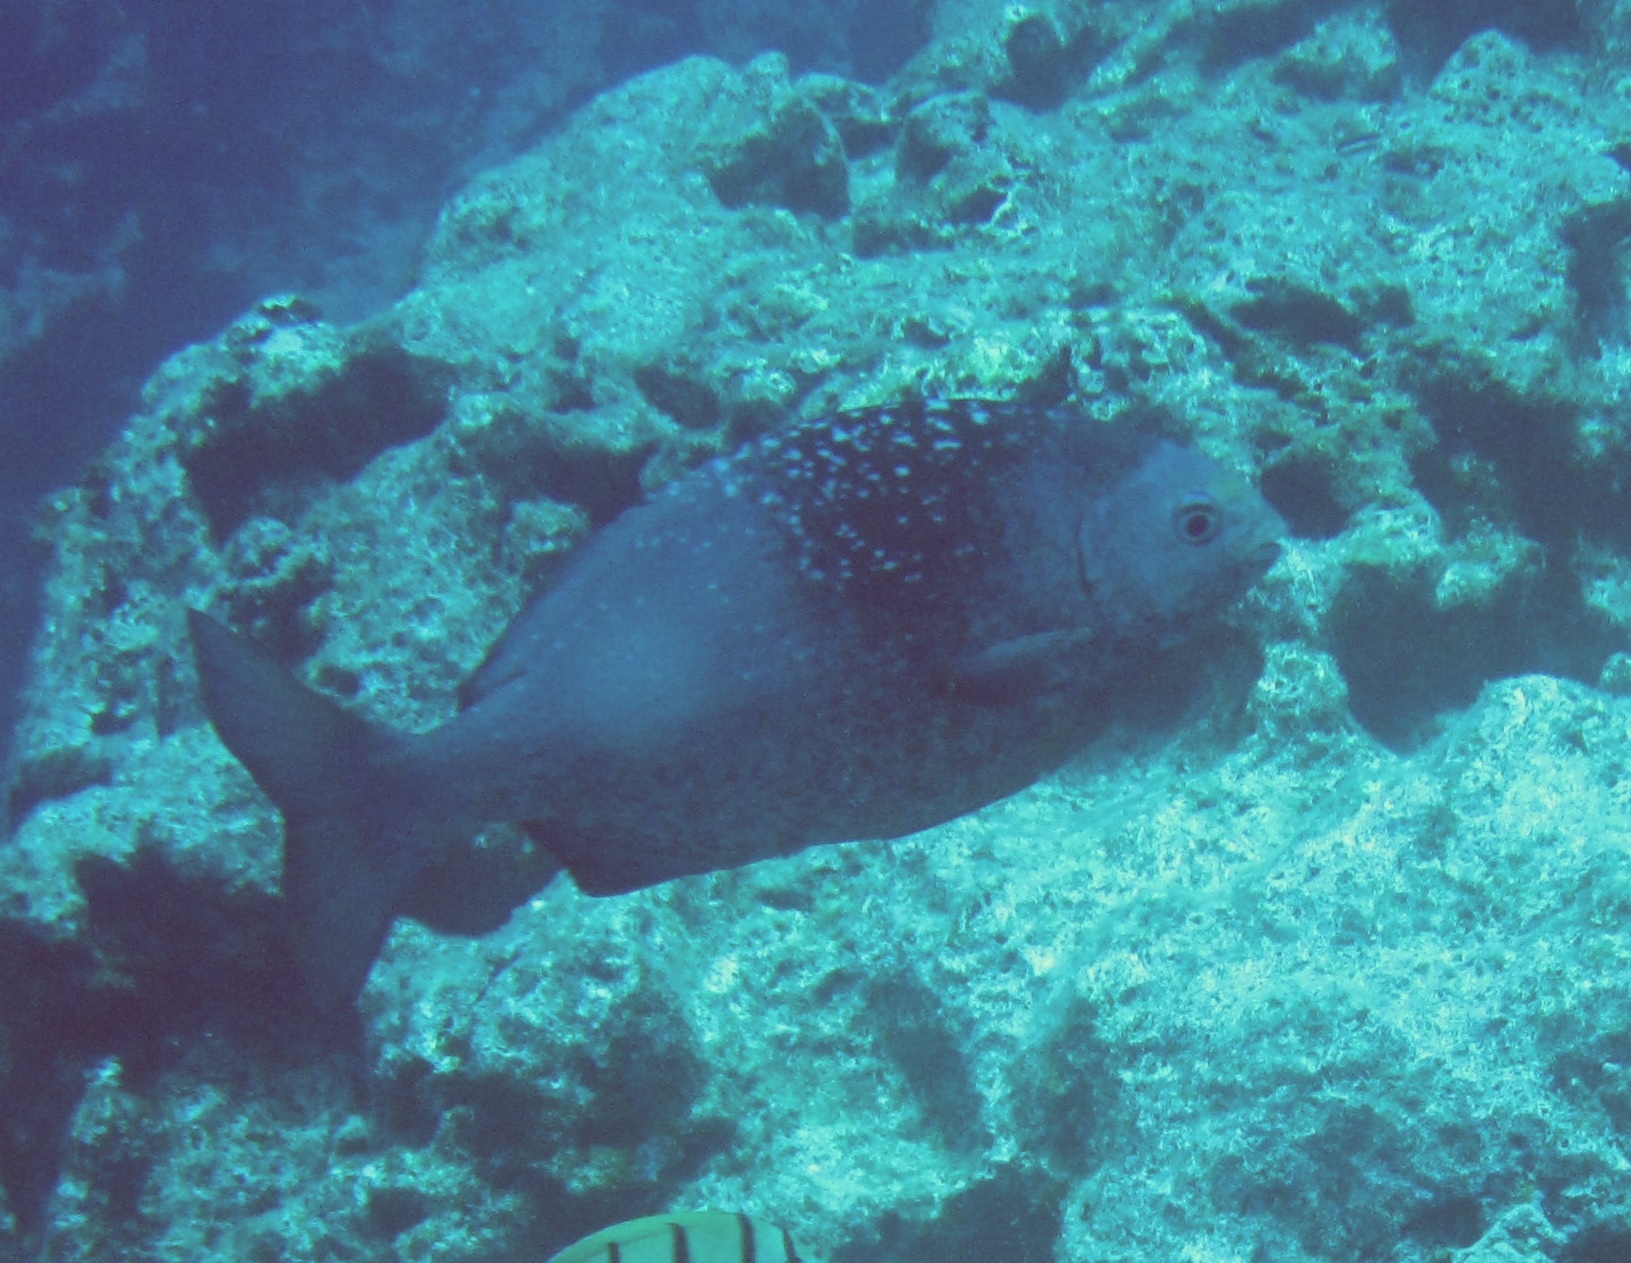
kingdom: Animalia
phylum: Chordata
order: Perciformes
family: Kyphosidae
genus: Kyphosus
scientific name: Kyphosus hawaiiensis
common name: Hawaiian chub
